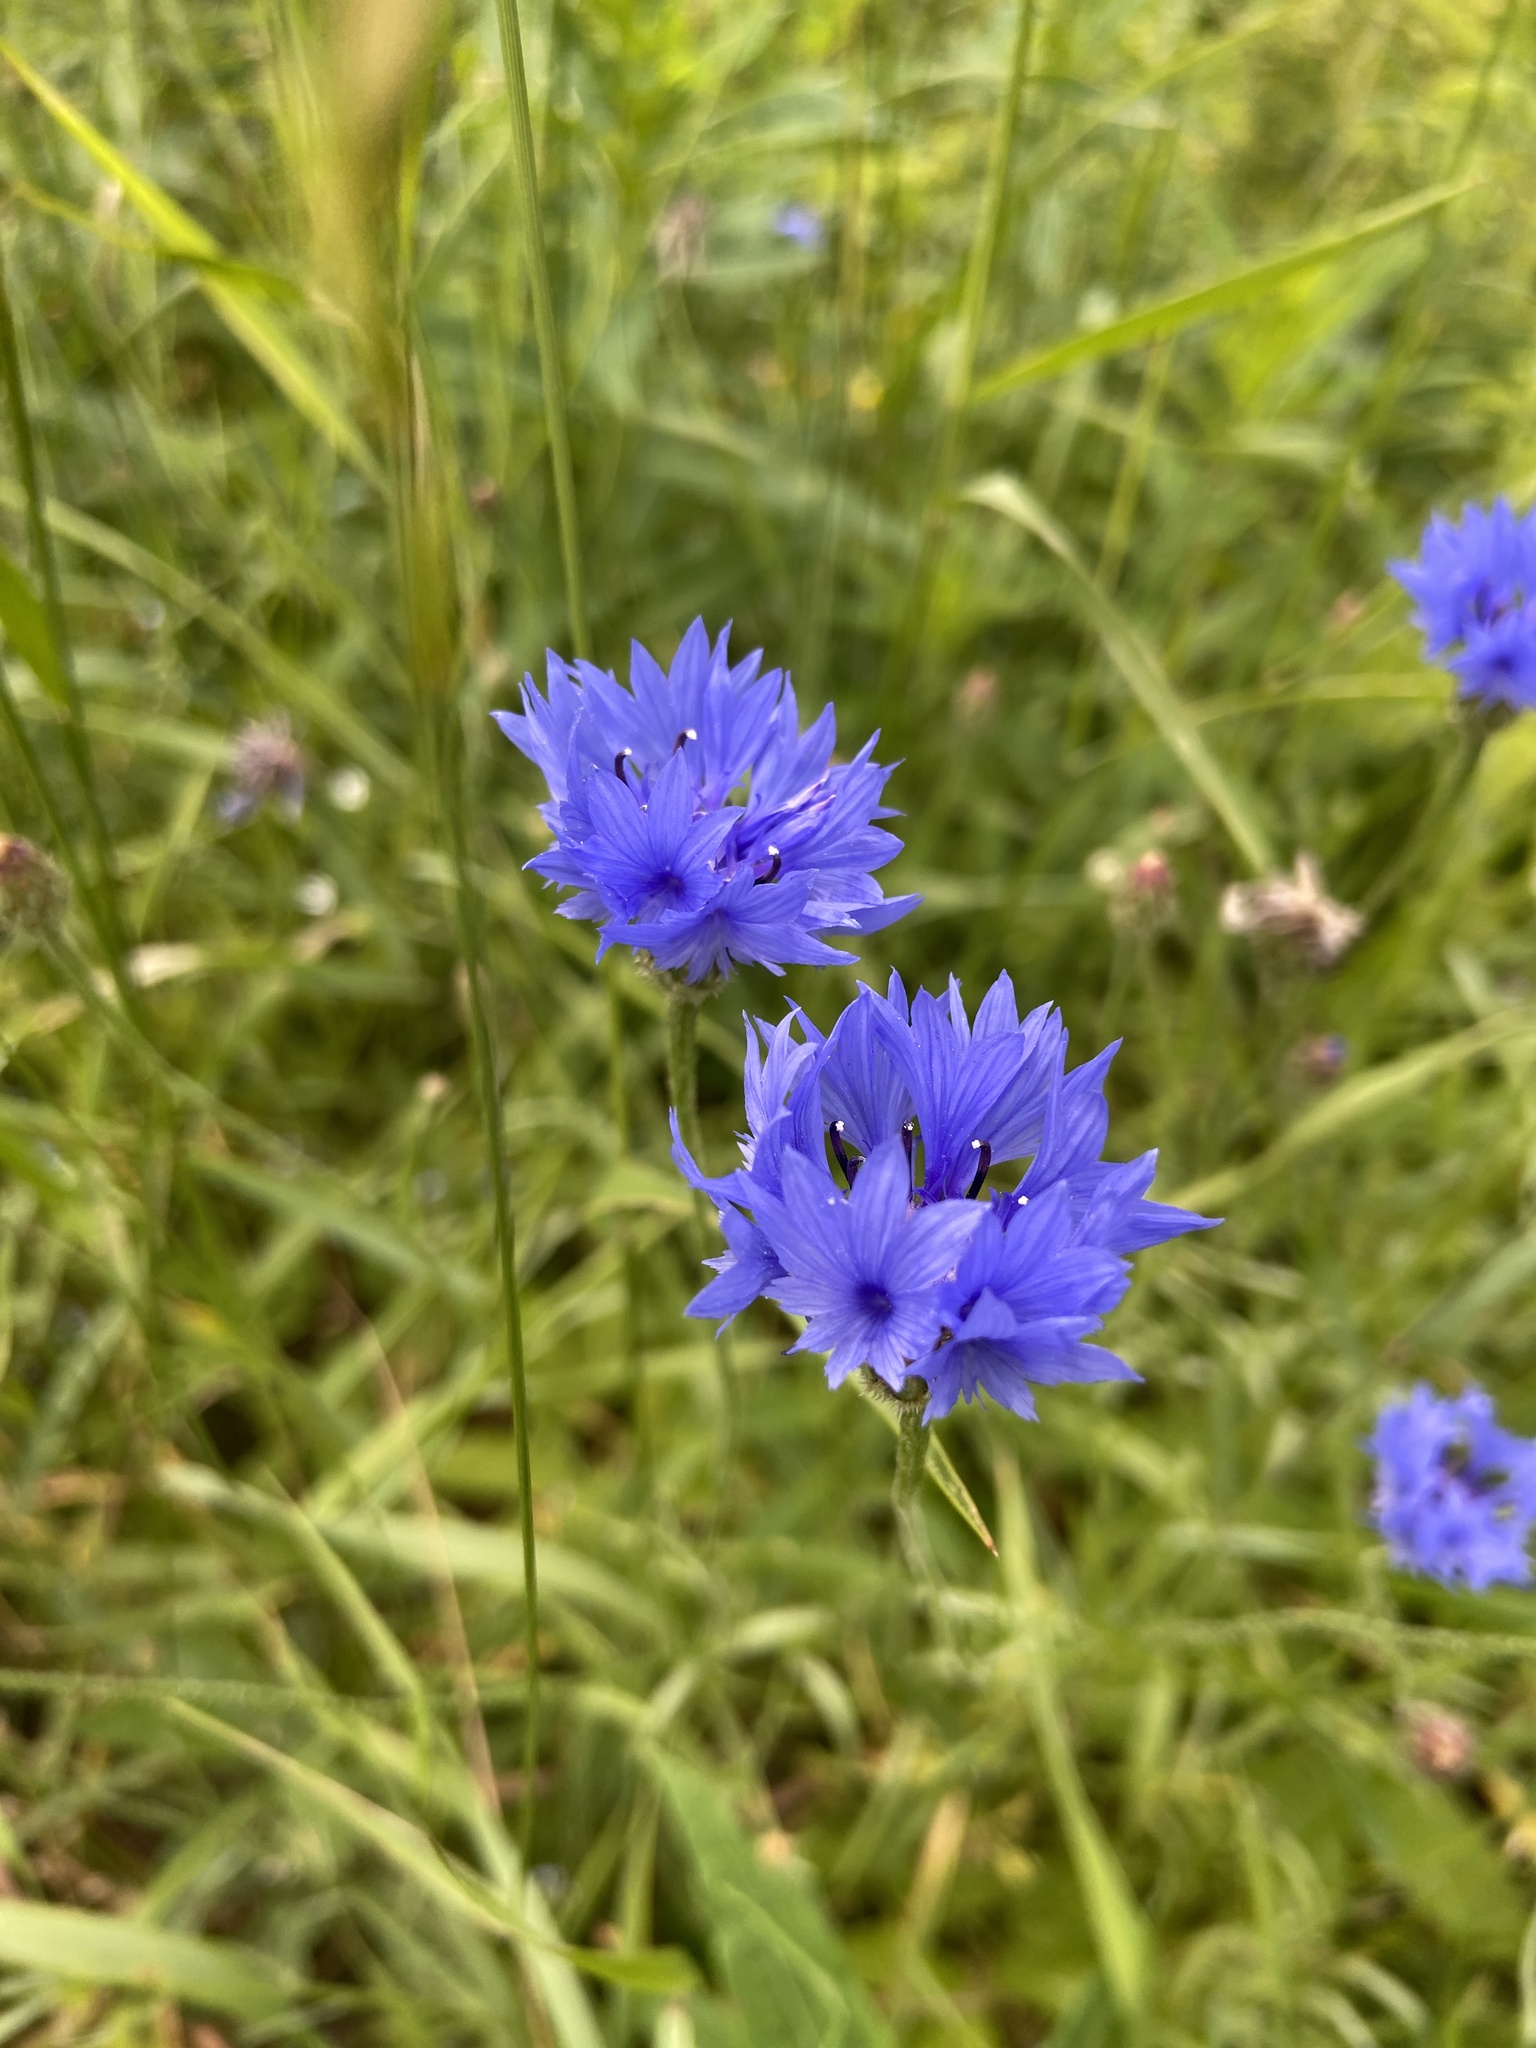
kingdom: Plantae
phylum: Tracheophyta
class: Magnoliopsida
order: Asterales
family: Asteraceae
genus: Centaurea
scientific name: Centaurea cyanus
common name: Cornflower
